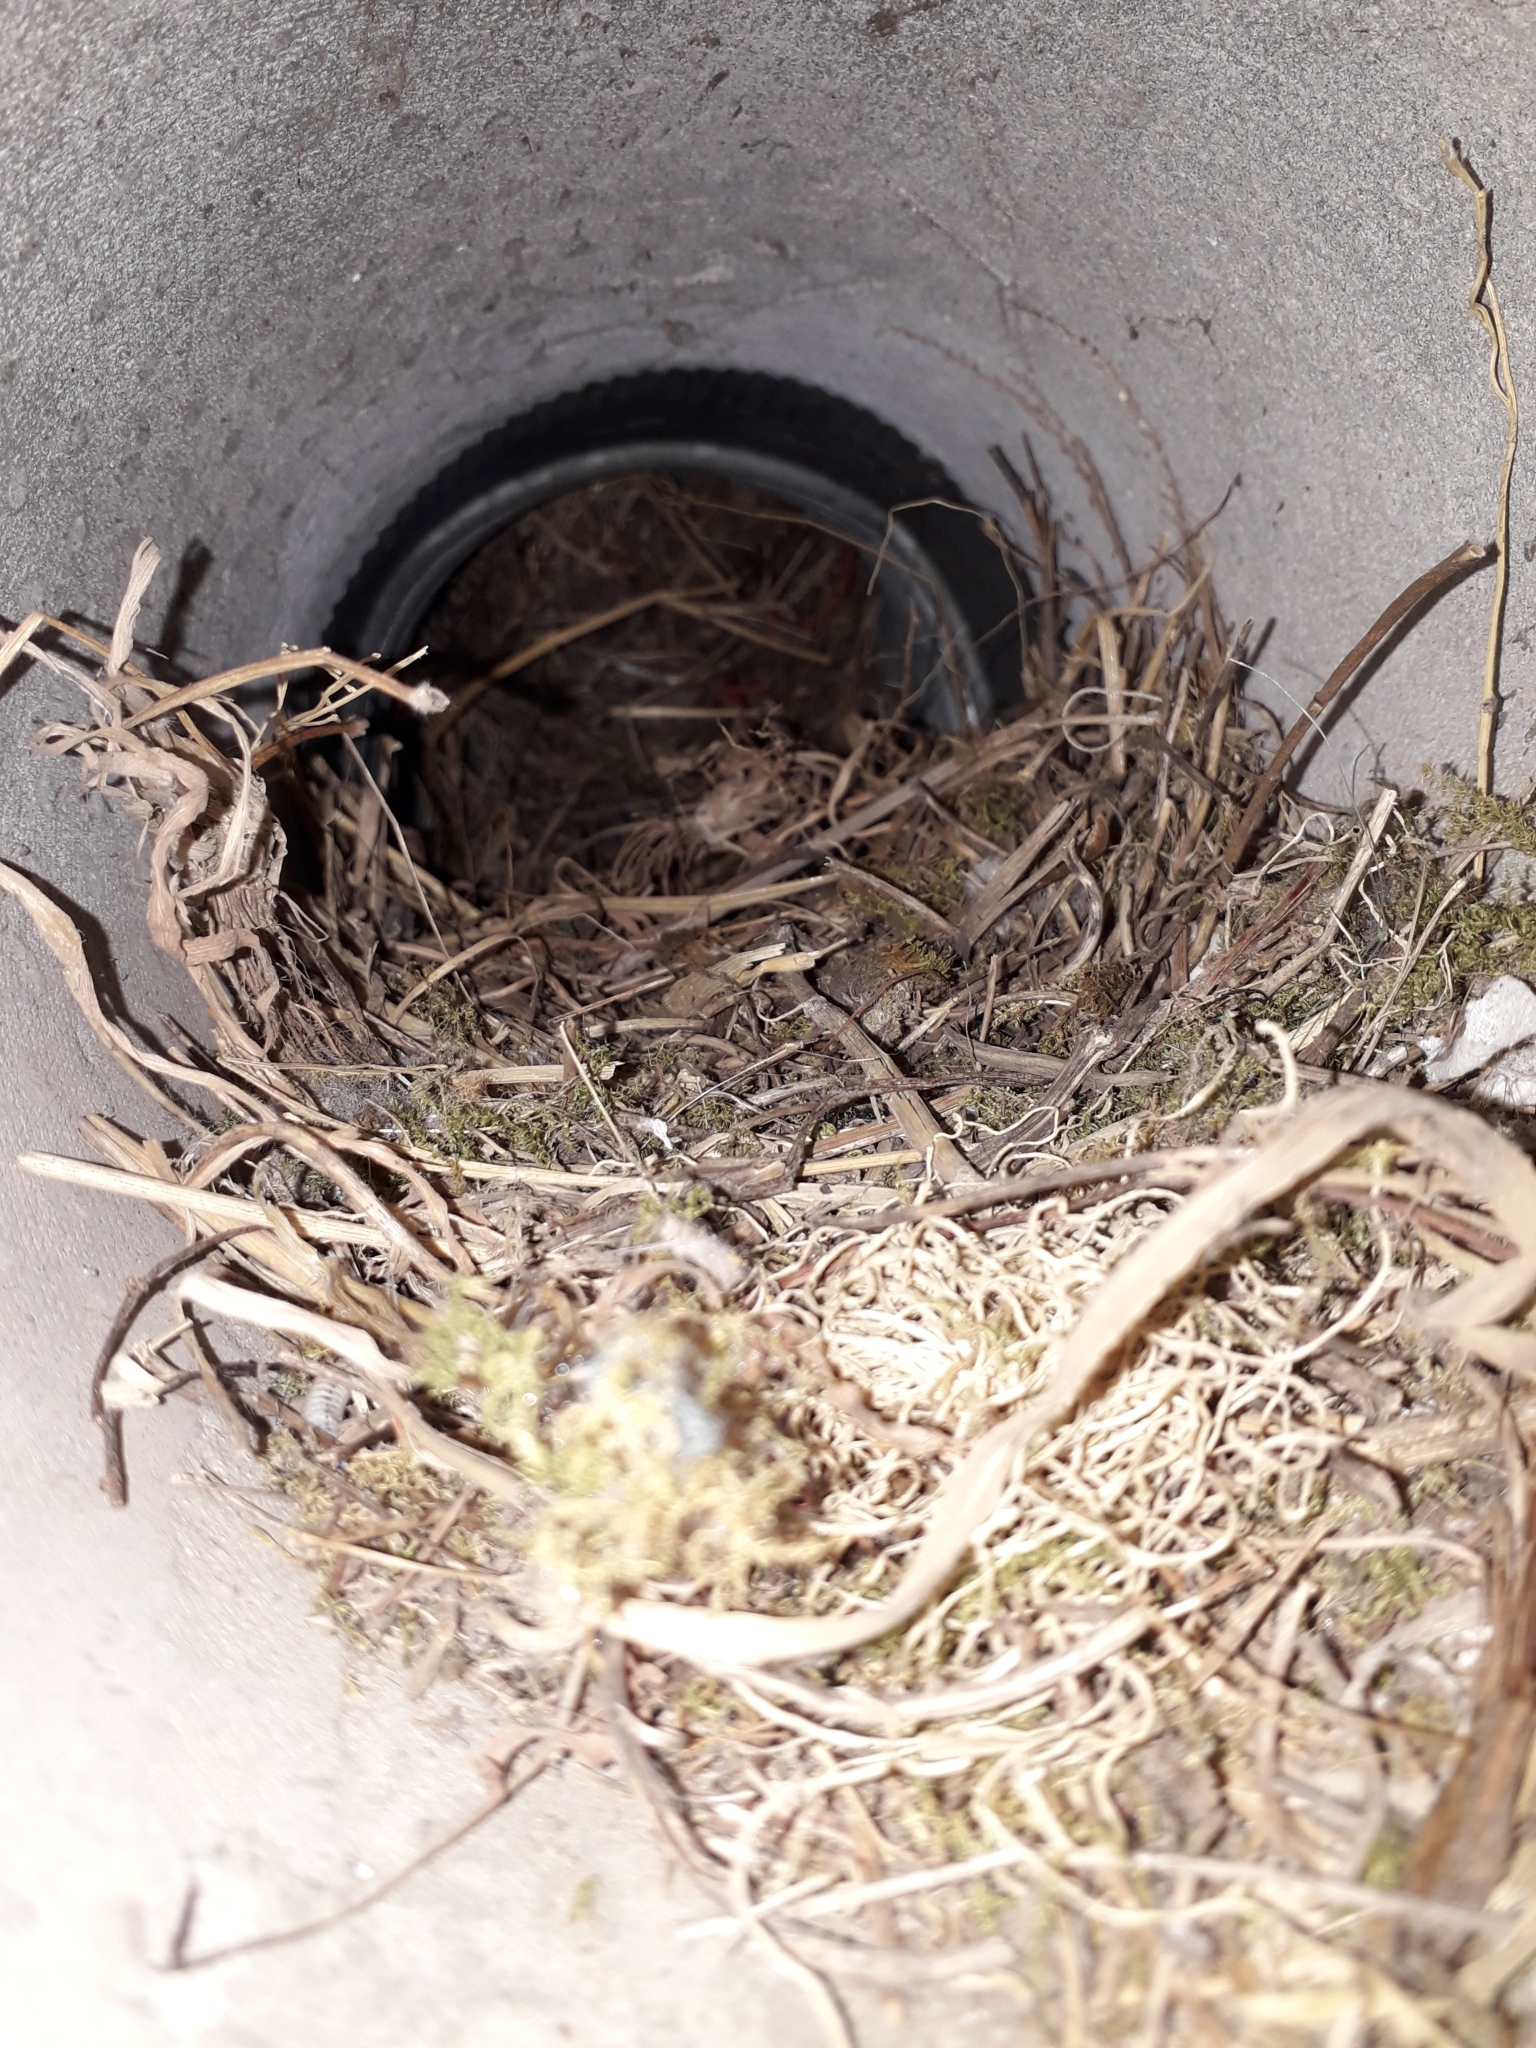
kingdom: Animalia
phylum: Chordata
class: Aves
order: Strigiformes
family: Strigidae
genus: Otus
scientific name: Otus scops
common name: Eurasian scops owl
